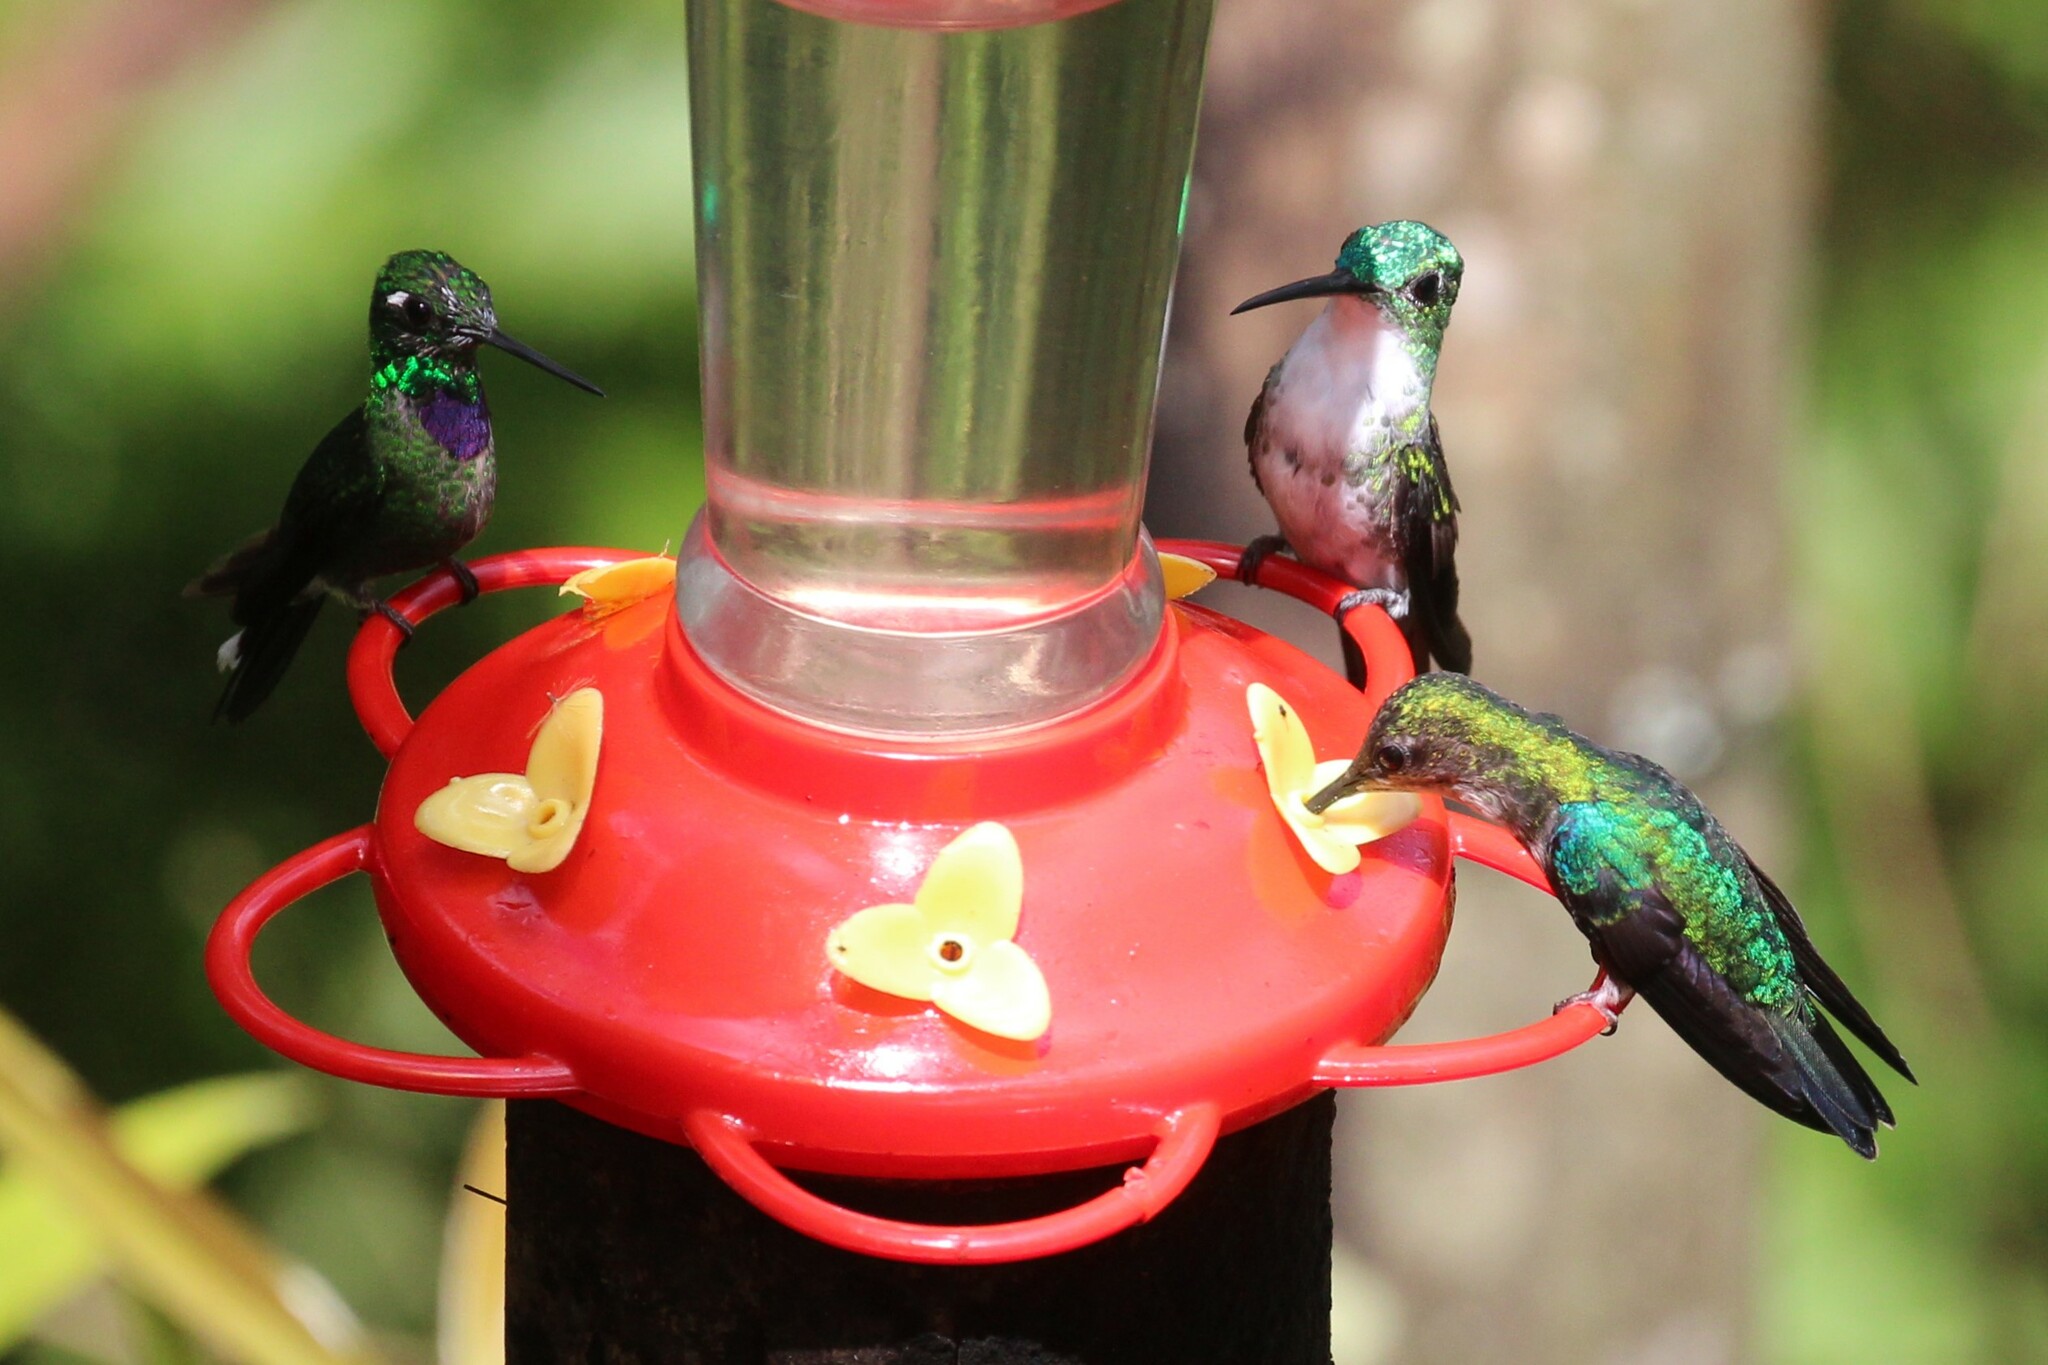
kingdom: Animalia
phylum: Chordata
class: Aves
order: Apodiformes
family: Trochilidae
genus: Urosticte
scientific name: Urosticte benjamini
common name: Purple-bibbed whitetip
